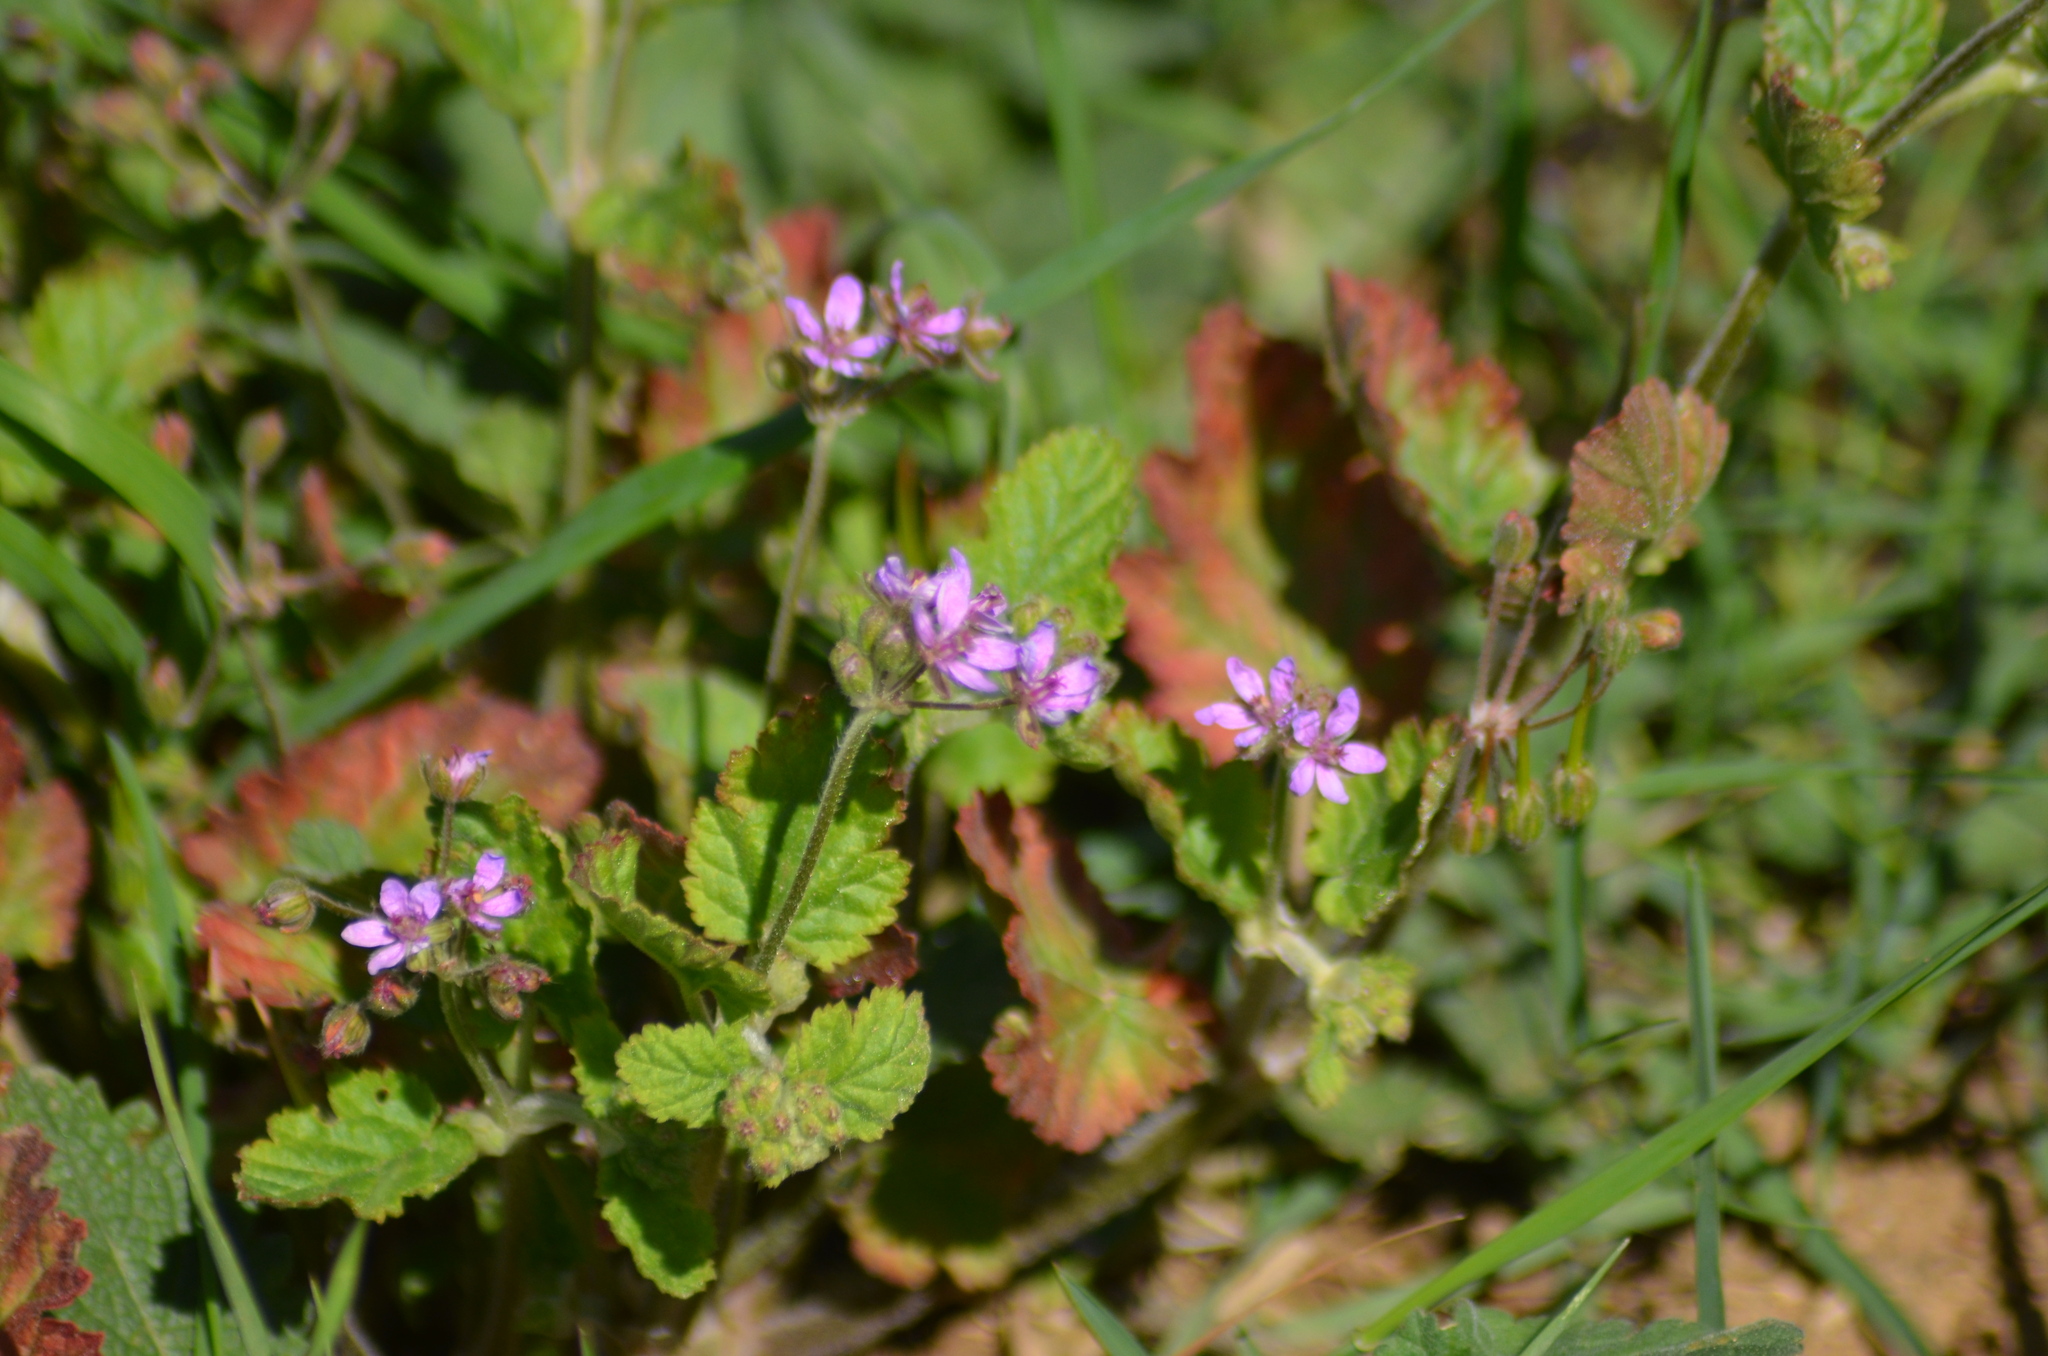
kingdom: Plantae
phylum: Tracheophyta
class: Magnoliopsida
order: Geraniales
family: Geraniaceae
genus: Erodium
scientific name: Erodium malacoides
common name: Soft stork's-bill
